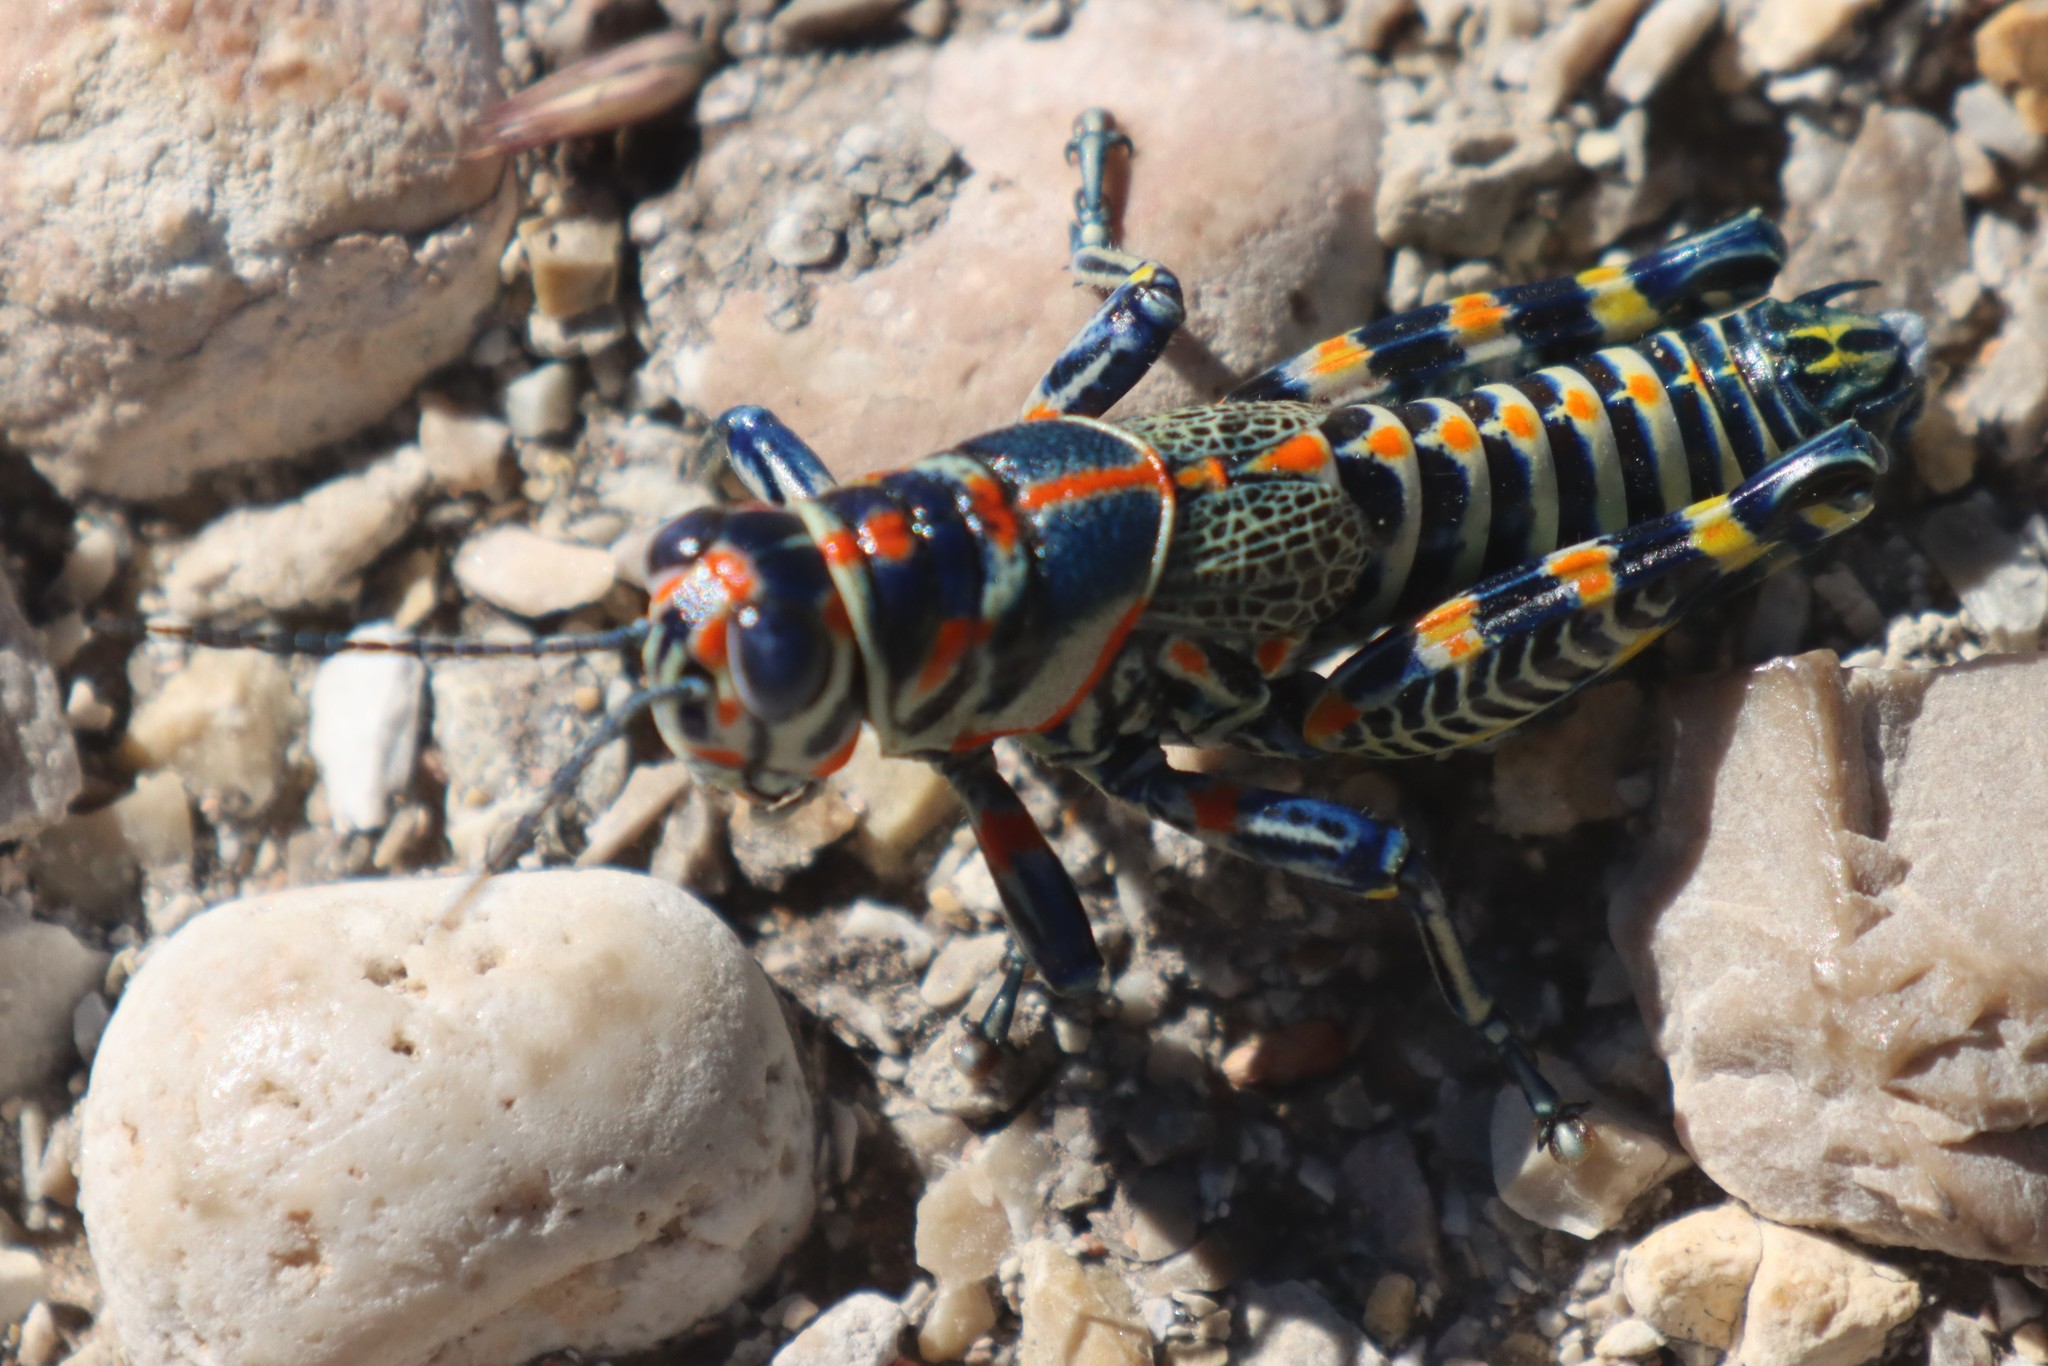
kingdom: Animalia
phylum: Arthropoda
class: Insecta
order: Orthoptera
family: Acrididae
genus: Dactylotum
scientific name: Dactylotum bicolor
